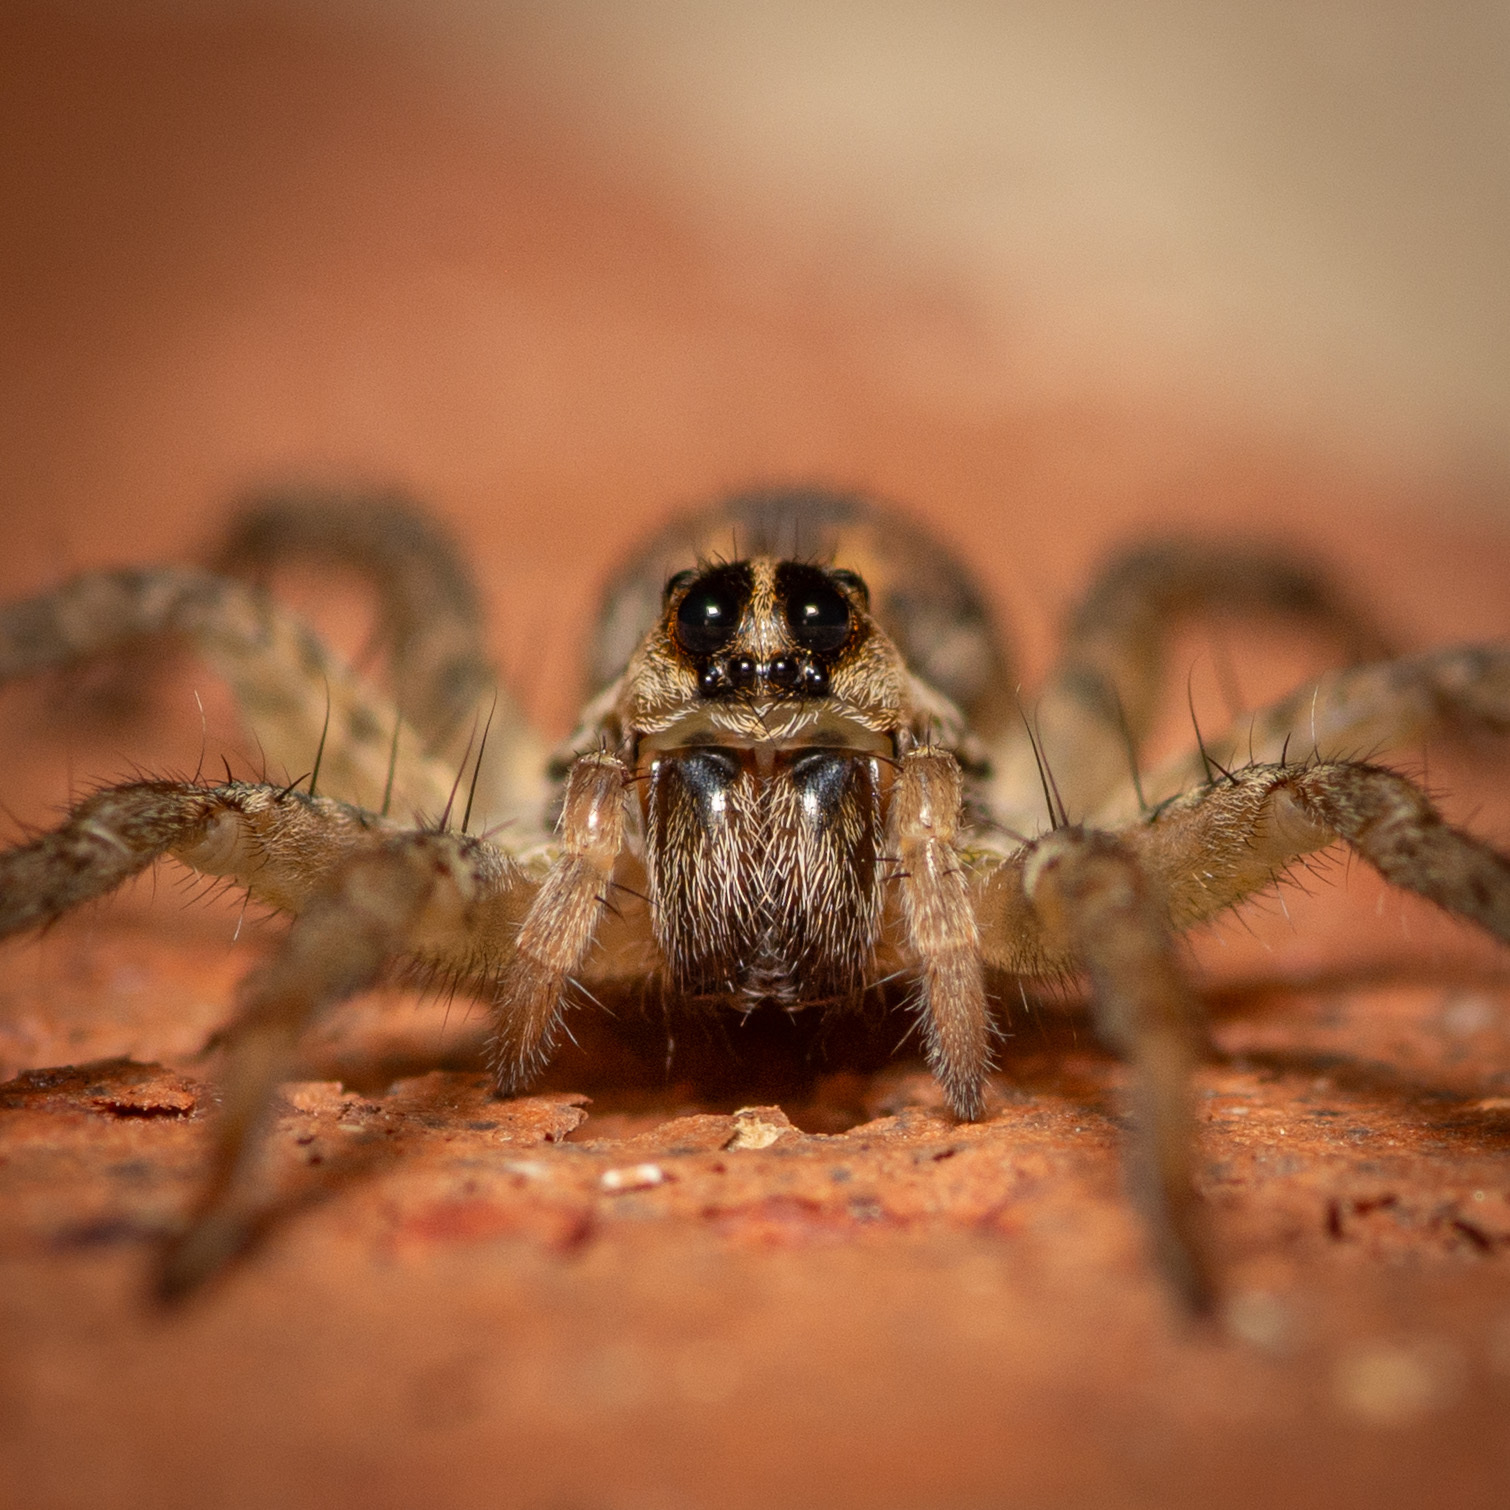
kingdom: Animalia
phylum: Arthropoda
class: Arachnida
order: Araneae
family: Lycosidae
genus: Hogna
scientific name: Hogna antelucana
